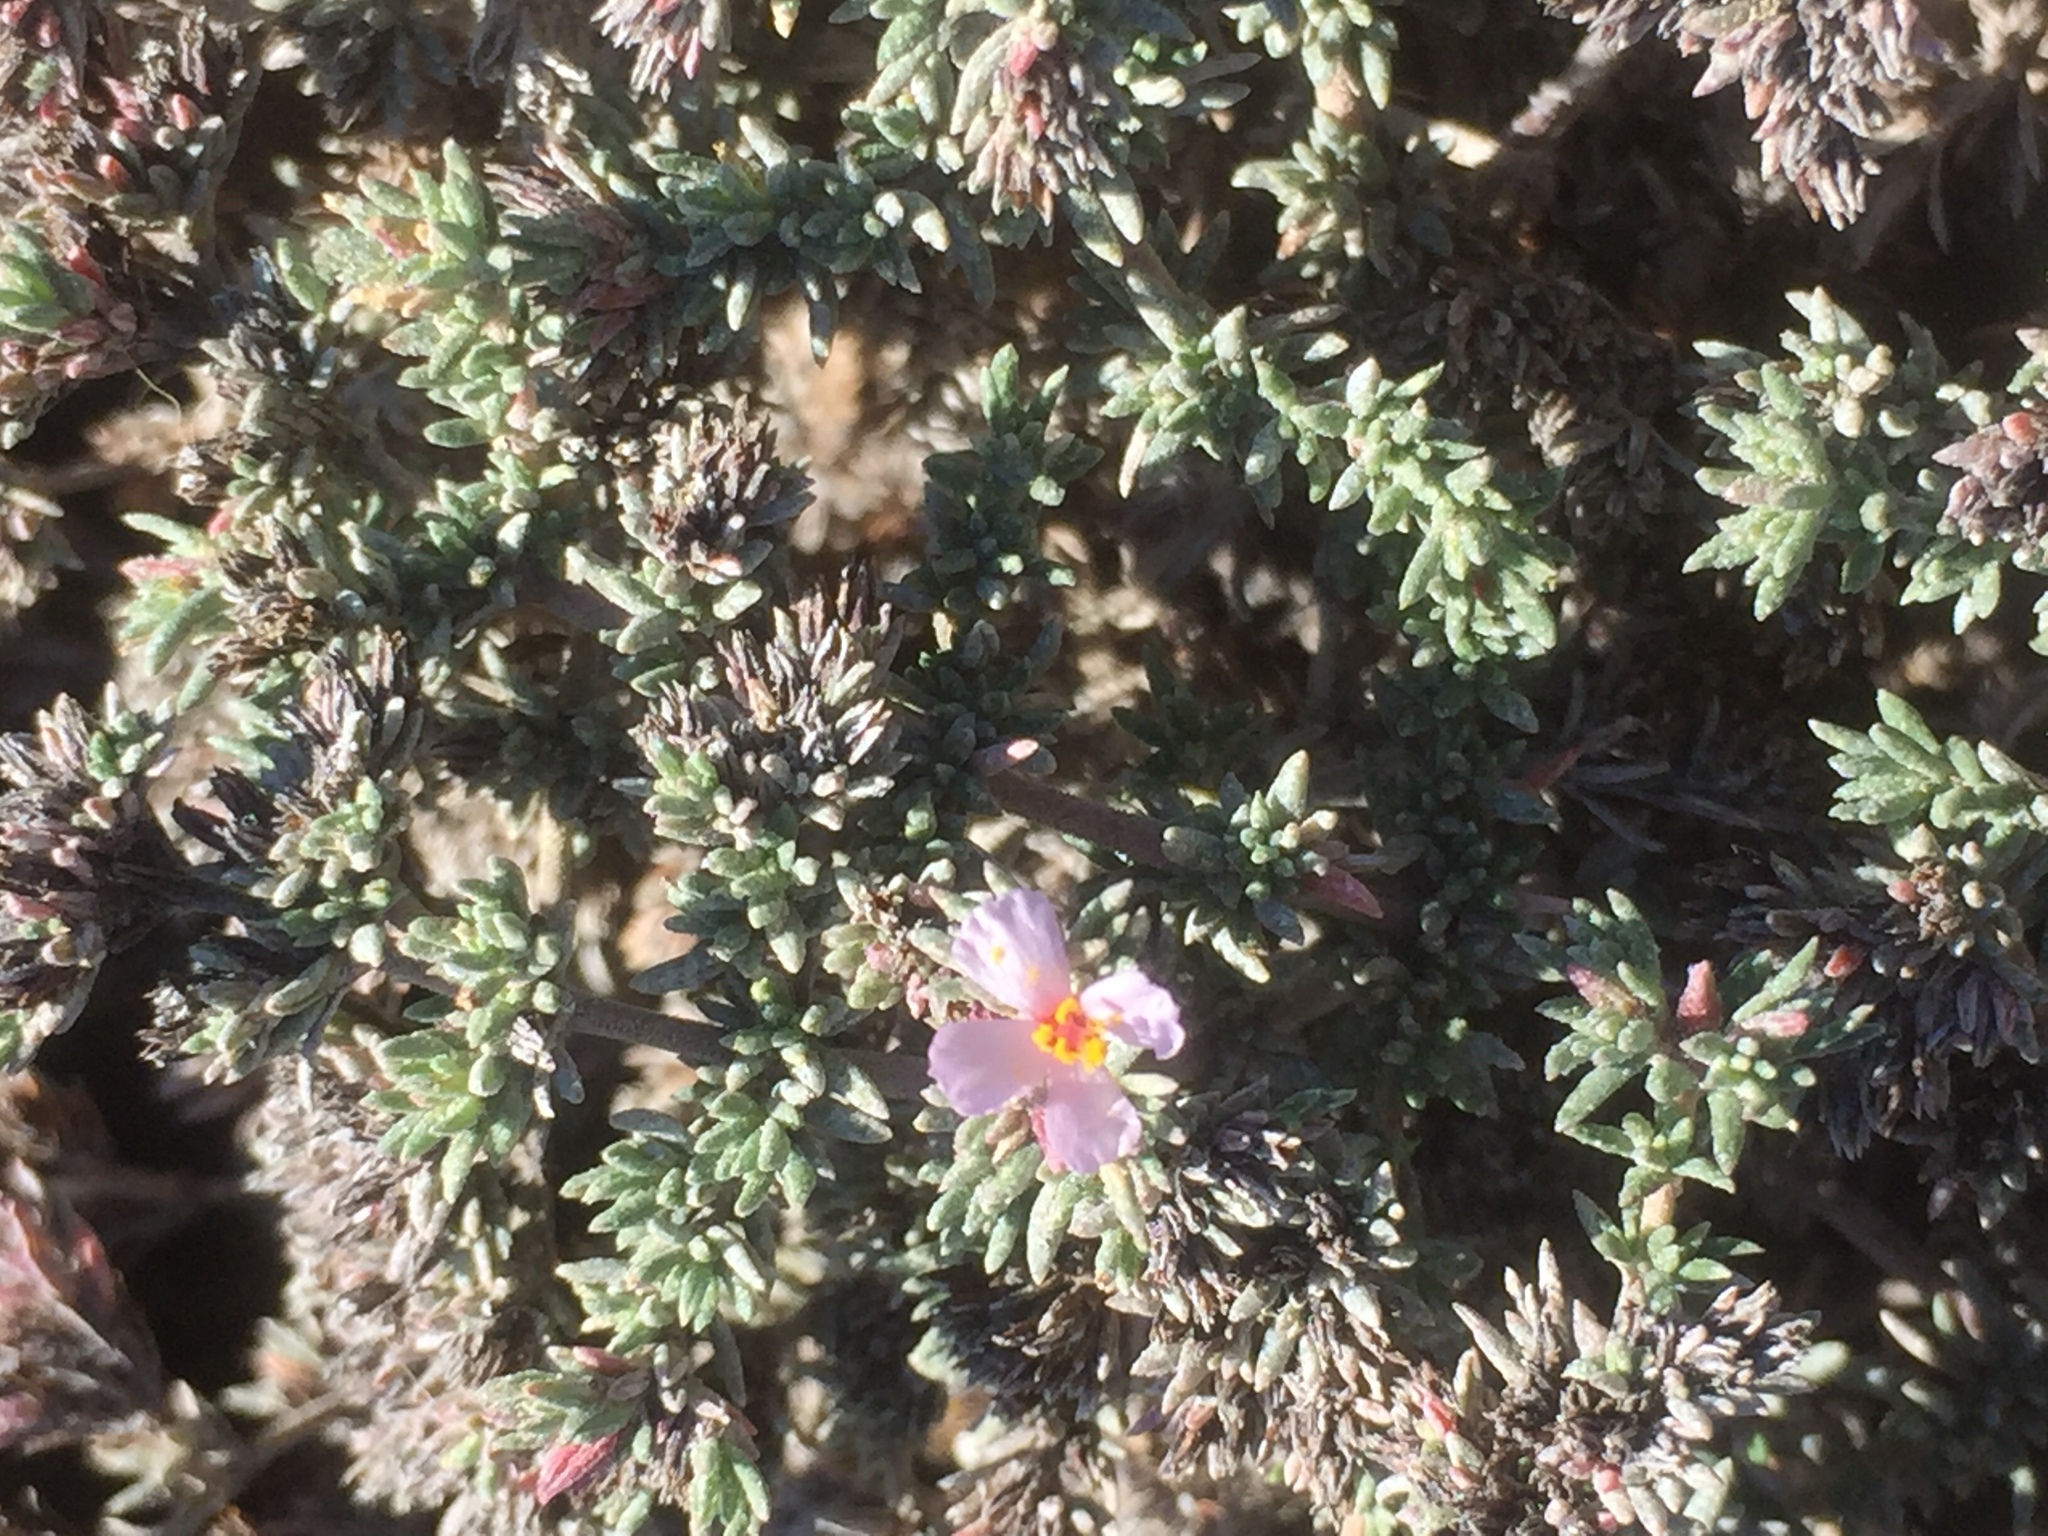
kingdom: Plantae
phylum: Tracheophyta
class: Magnoliopsida
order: Caryophyllales
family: Frankeniaceae
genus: Frankenia
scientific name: Frankenia capitata
